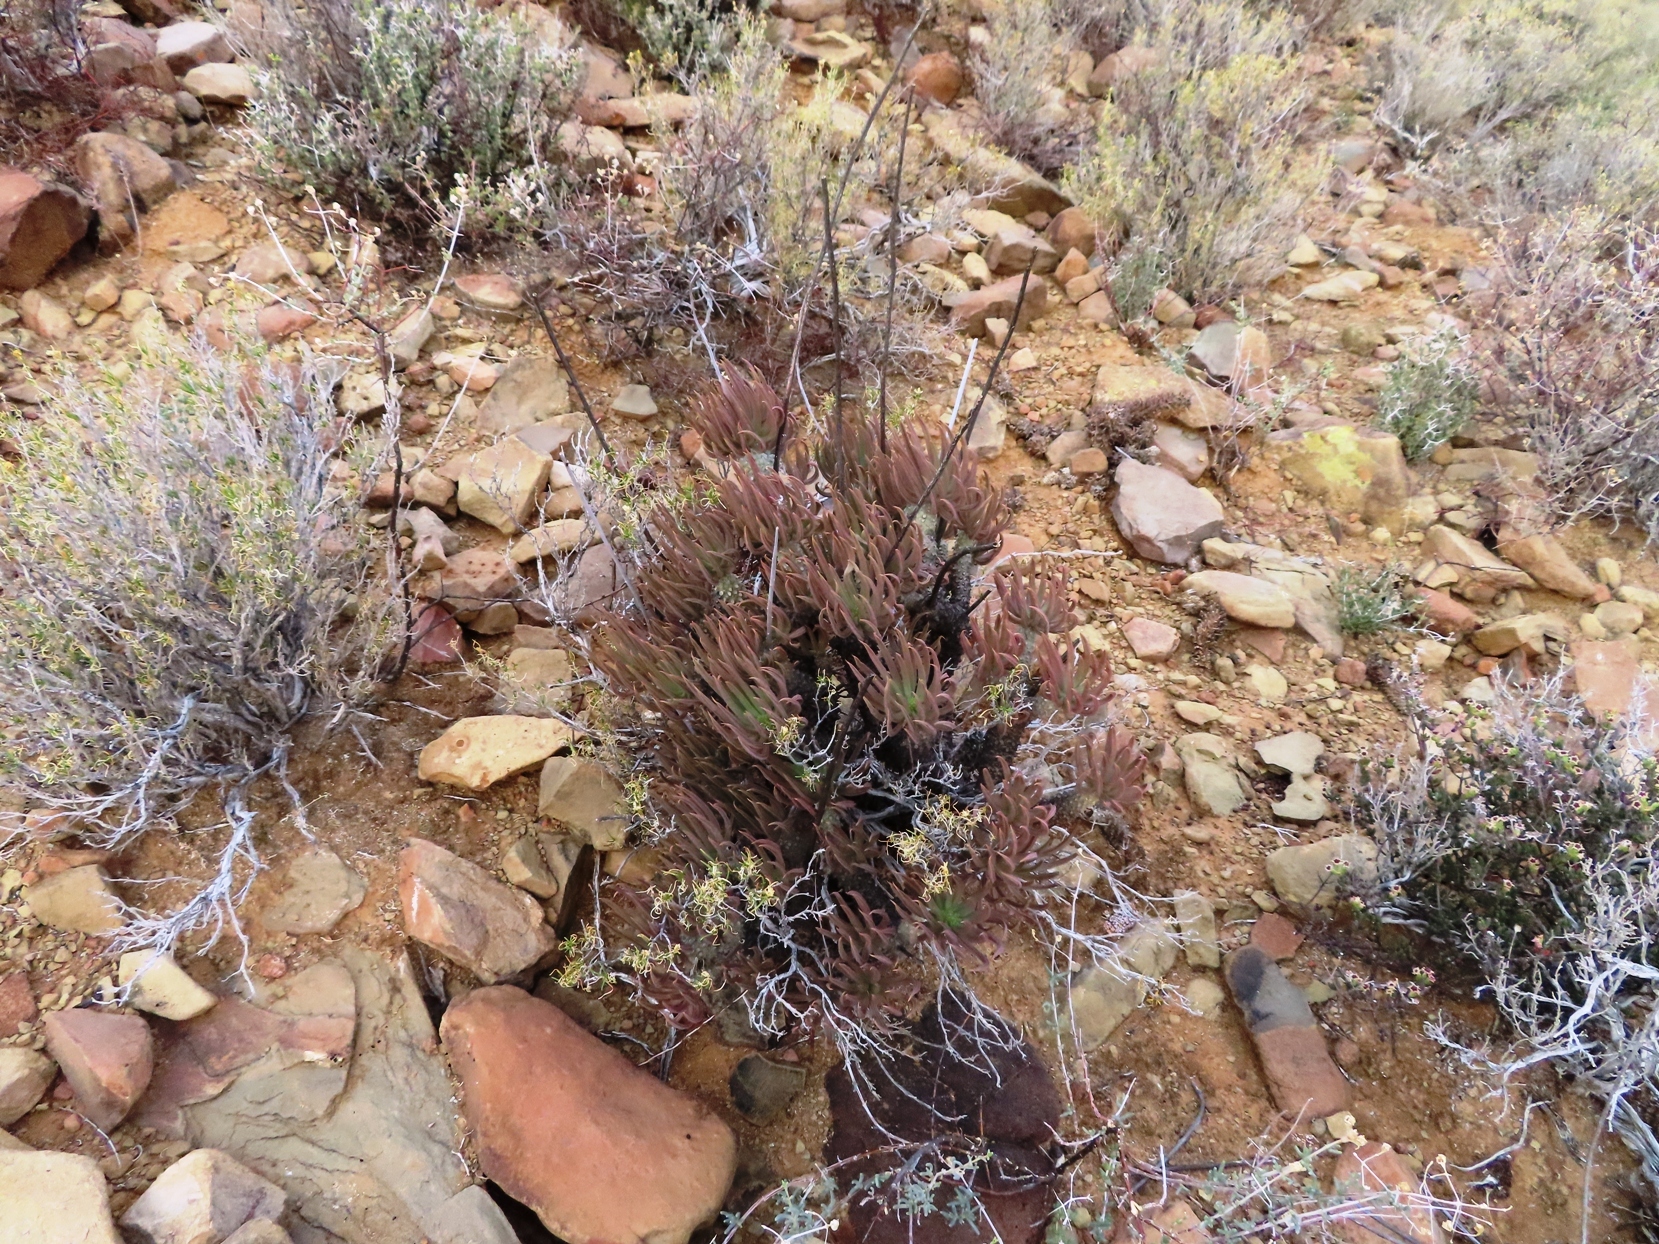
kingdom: Plantae
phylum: Tracheophyta
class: Magnoliopsida
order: Saxifragales
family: Crassulaceae
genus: Tylecodon
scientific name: Tylecodon wallichii
